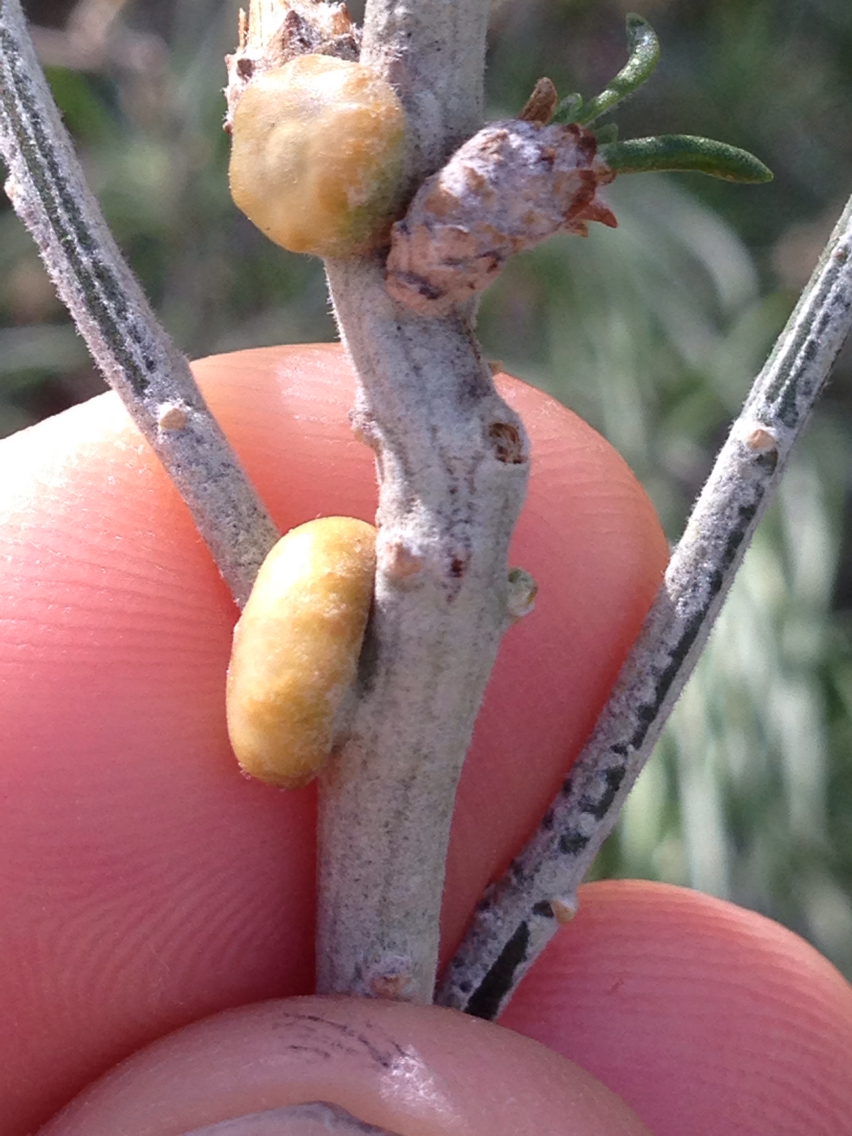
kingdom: Animalia
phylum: Arthropoda
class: Insecta
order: Diptera
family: Cecidomyiidae
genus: Rhopalomyia
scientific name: Rhopalomyia glutinosa
